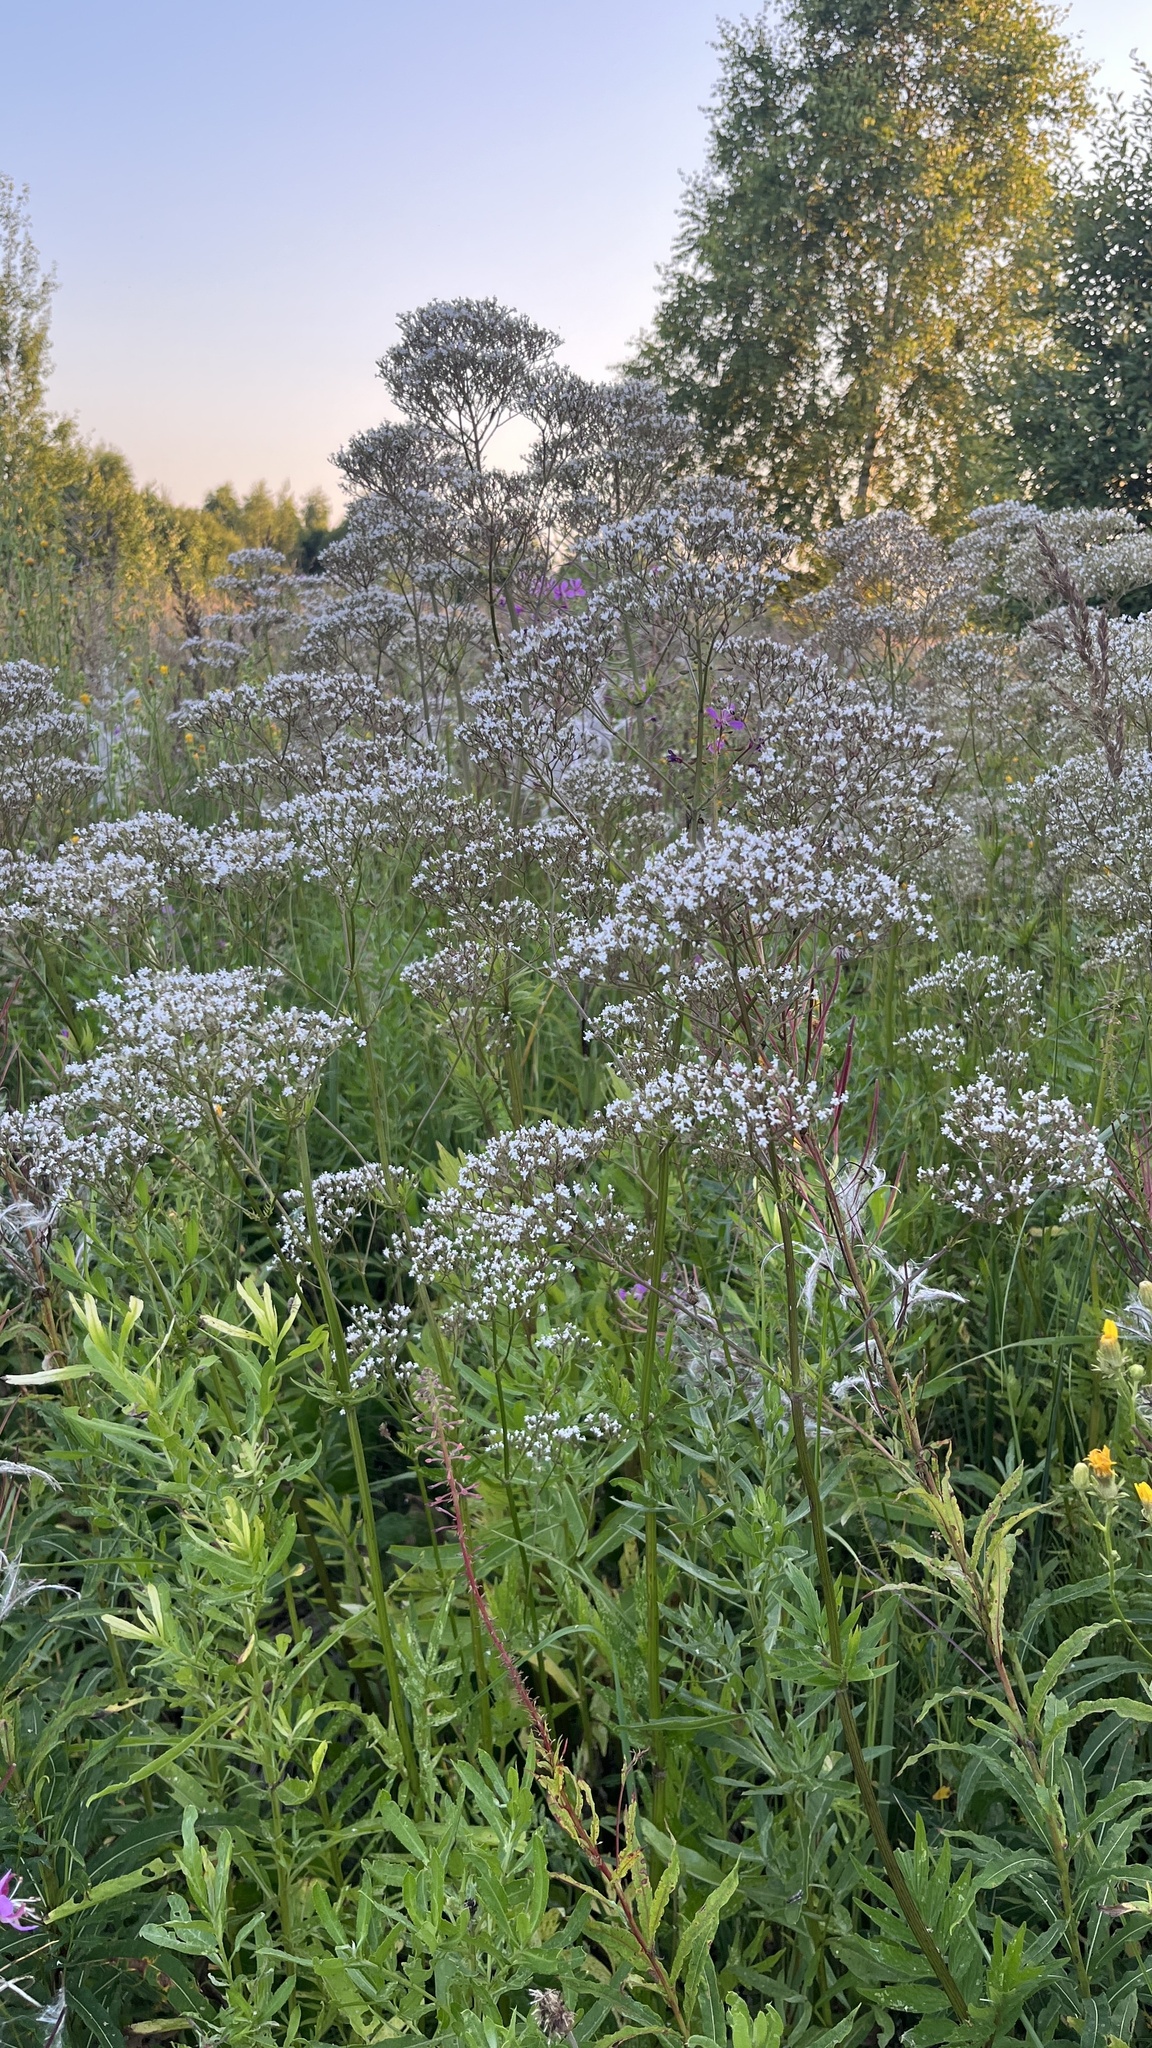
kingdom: Plantae
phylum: Tracheophyta
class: Magnoliopsida
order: Dipsacales
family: Caprifoliaceae
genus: Valeriana
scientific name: Valeriana officinalis
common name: Common valerian
